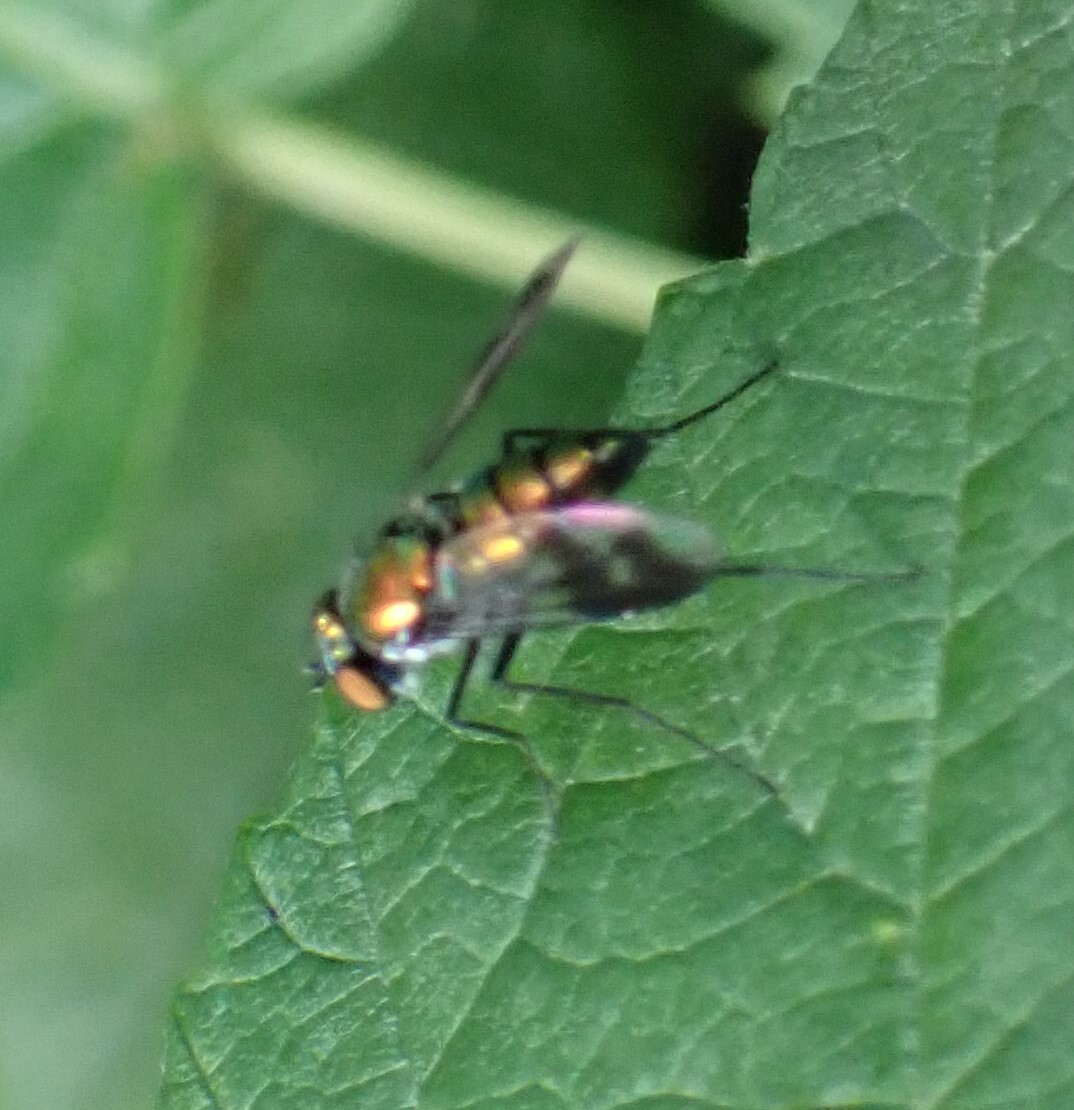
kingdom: Animalia
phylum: Arthropoda
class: Insecta
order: Diptera
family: Dolichopodidae
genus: Condylostylus
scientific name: Condylostylus patibulatus
